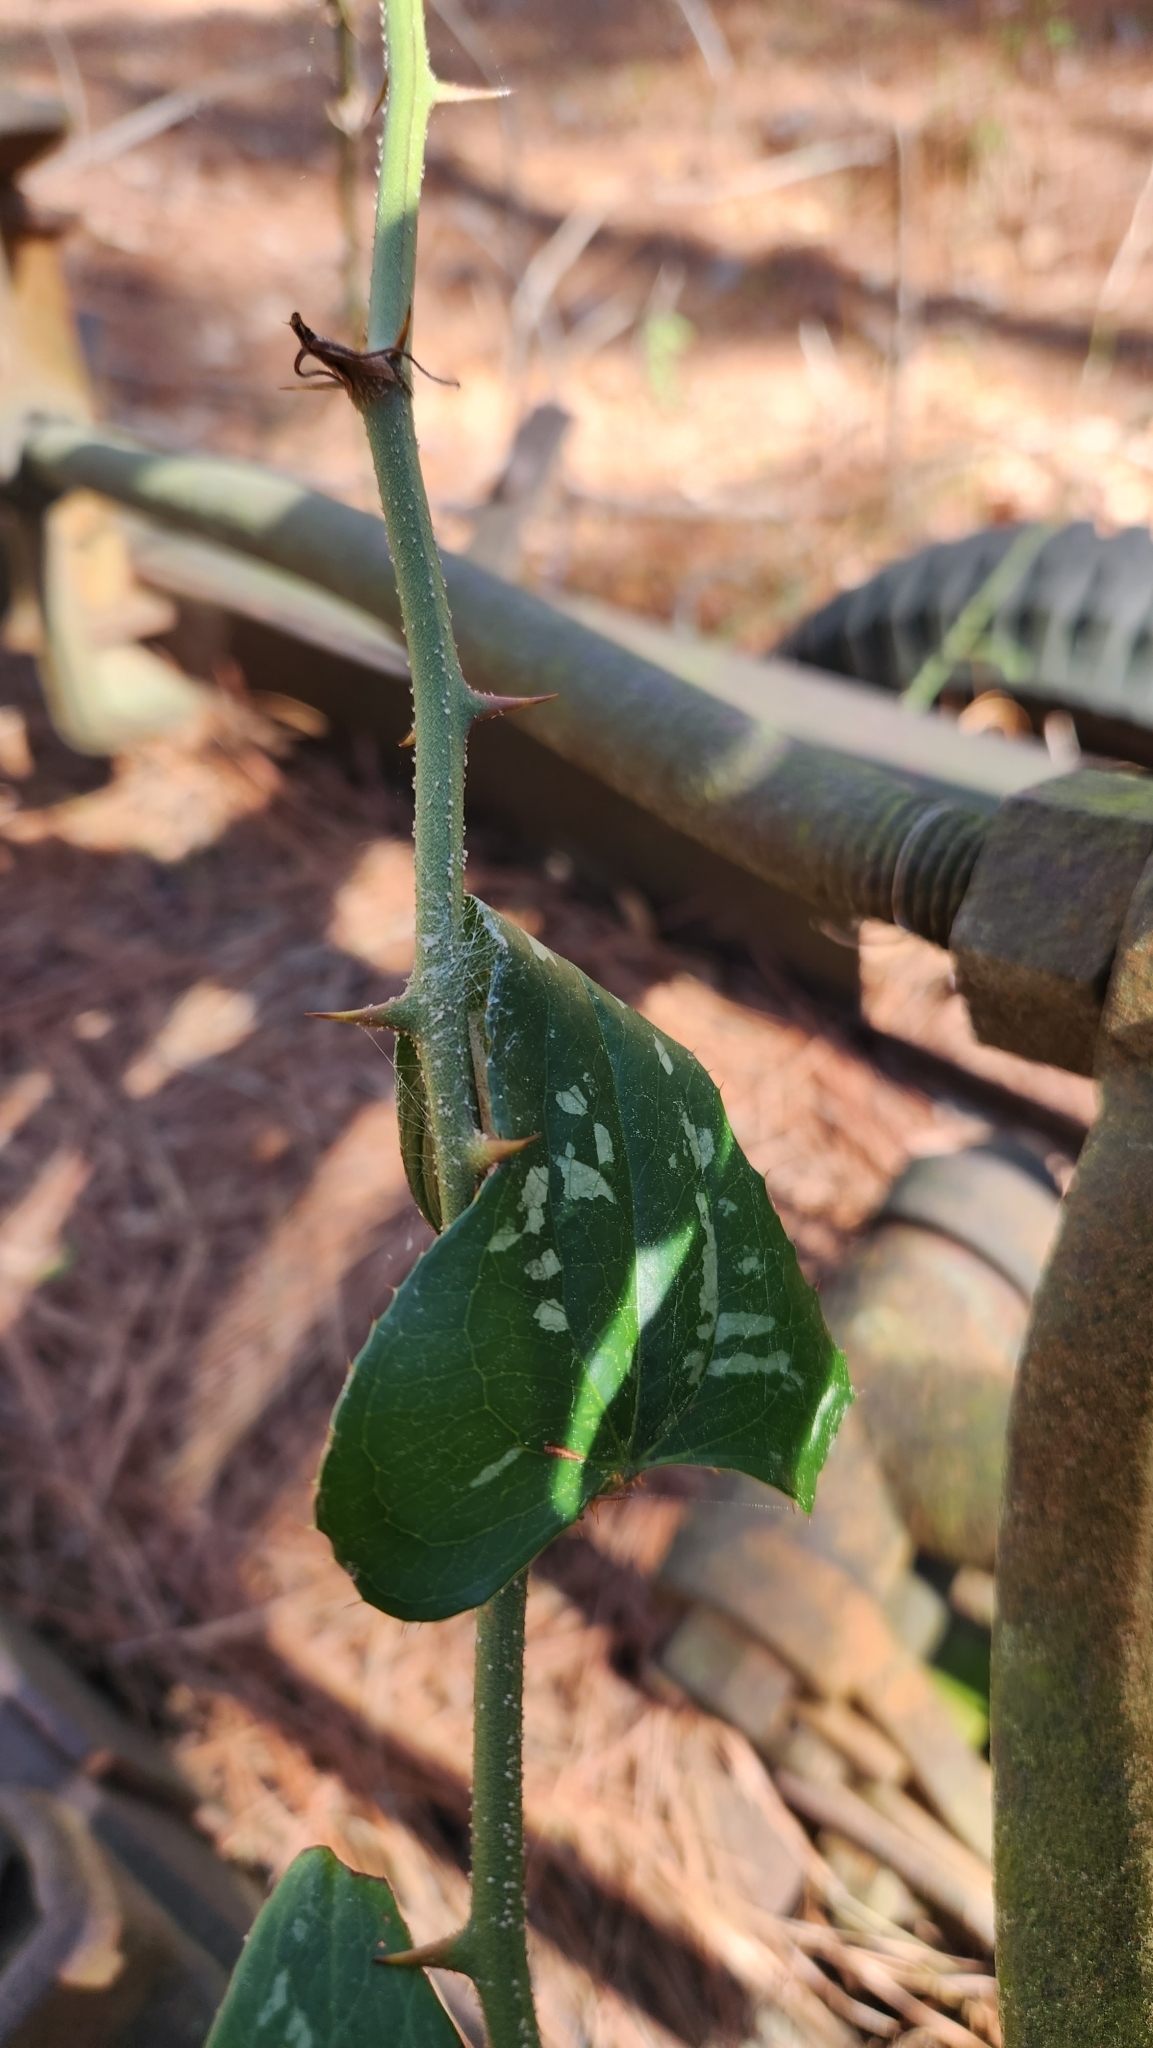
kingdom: Plantae
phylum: Tracheophyta
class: Liliopsida
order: Liliales
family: Smilacaceae
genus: Smilax
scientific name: Smilax bona-nox
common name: Catbrier
